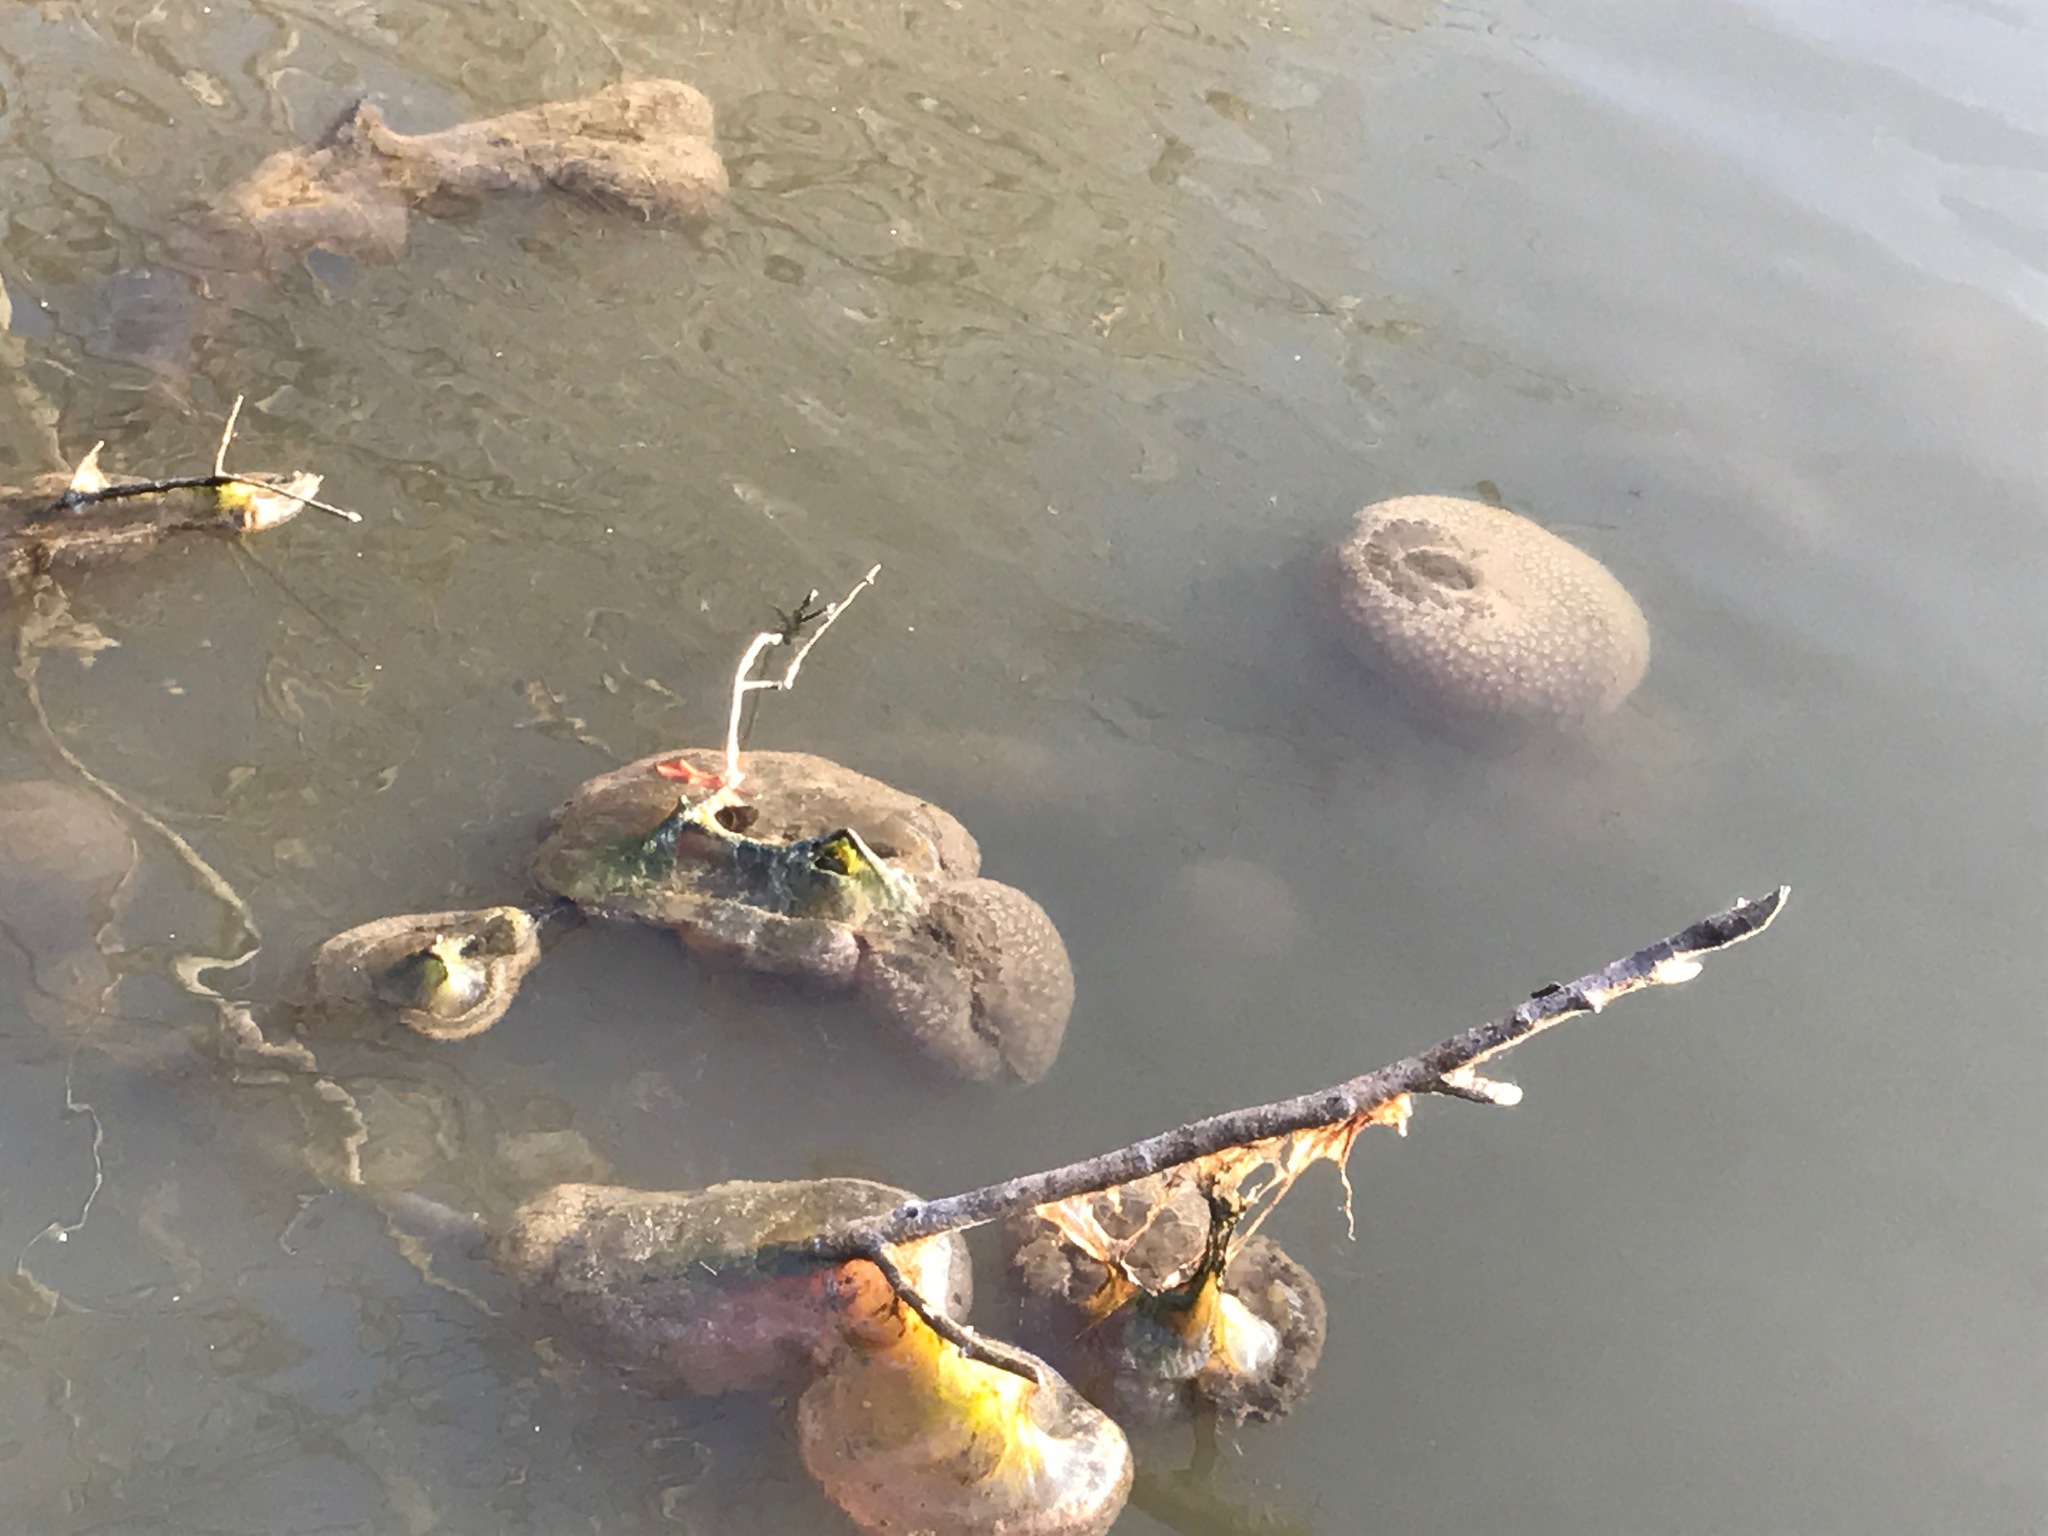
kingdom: Animalia
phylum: Bryozoa
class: Phylactolaemata
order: Plumatellida
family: Pectinatellidae
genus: Pectinatella
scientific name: Pectinatella magnifica
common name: Magnificent bryozoan
